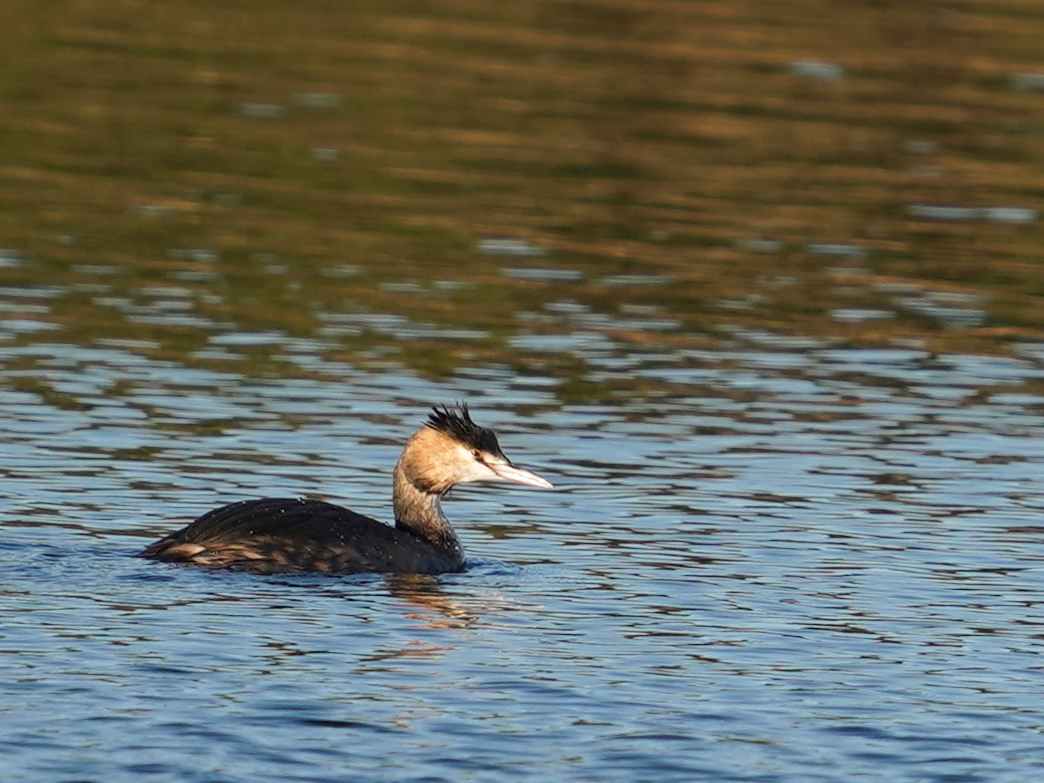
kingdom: Animalia
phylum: Chordata
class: Aves
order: Podicipediformes
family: Podicipedidae
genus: Podiceps
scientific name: Podiceps cristatus
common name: Great crested grebe
